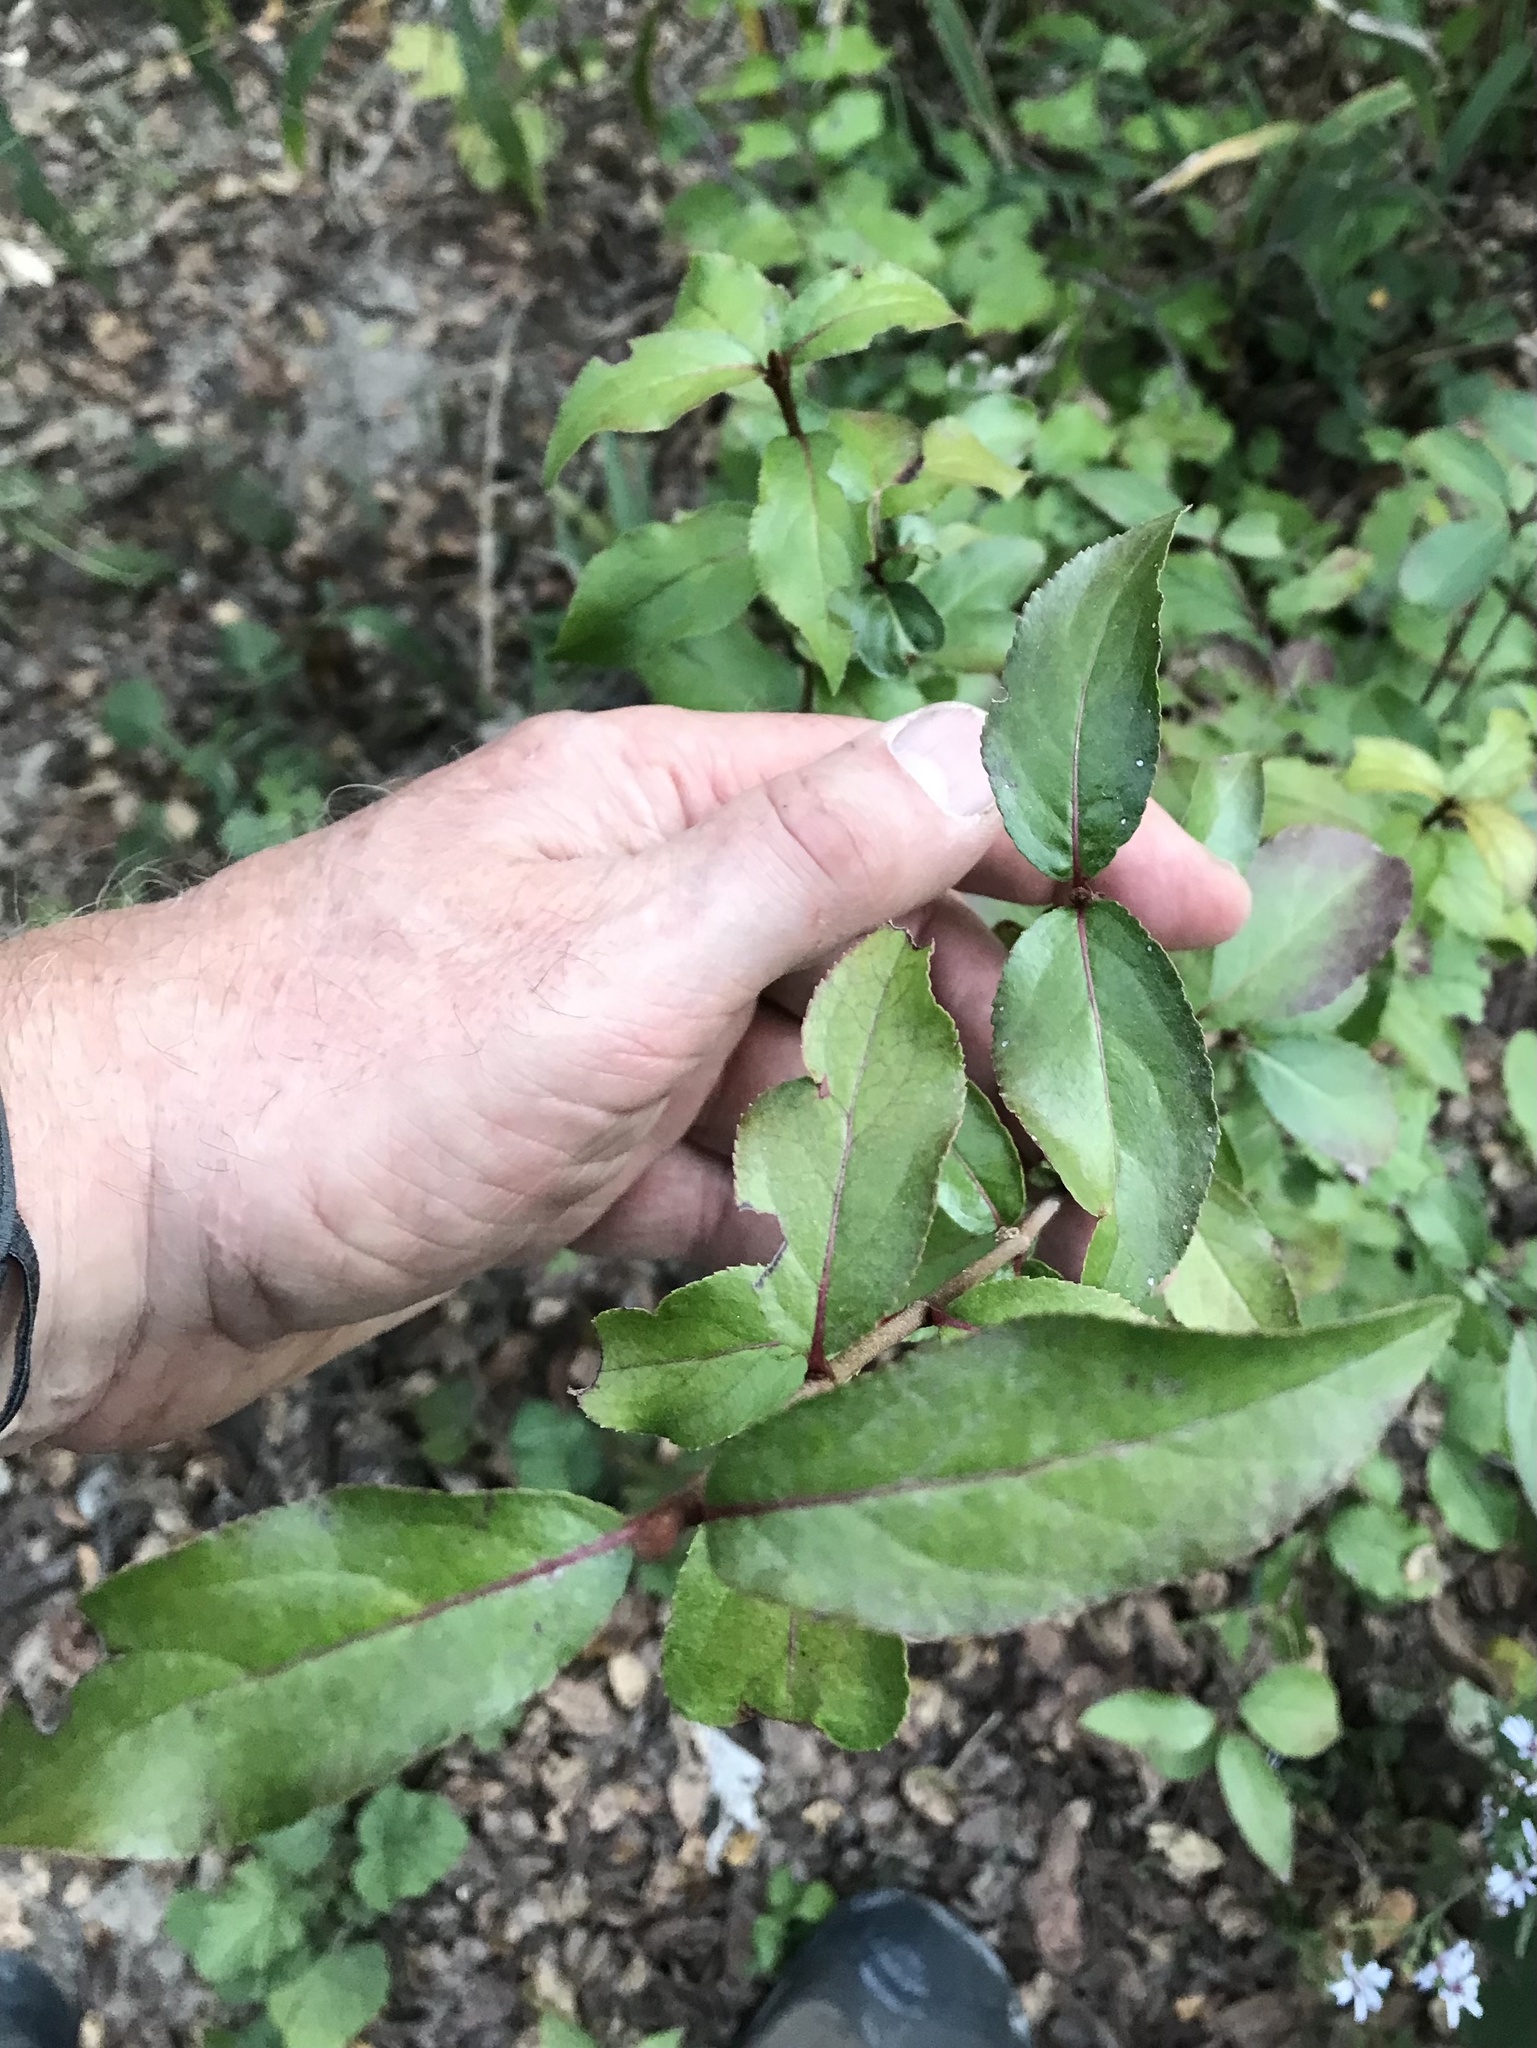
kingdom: Plantae
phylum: Tracheophyta
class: Magnoliopsida
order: Dipsacales
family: Viburnaceae
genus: Viburnum
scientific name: Viburnum rufidulum
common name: Blue haw
